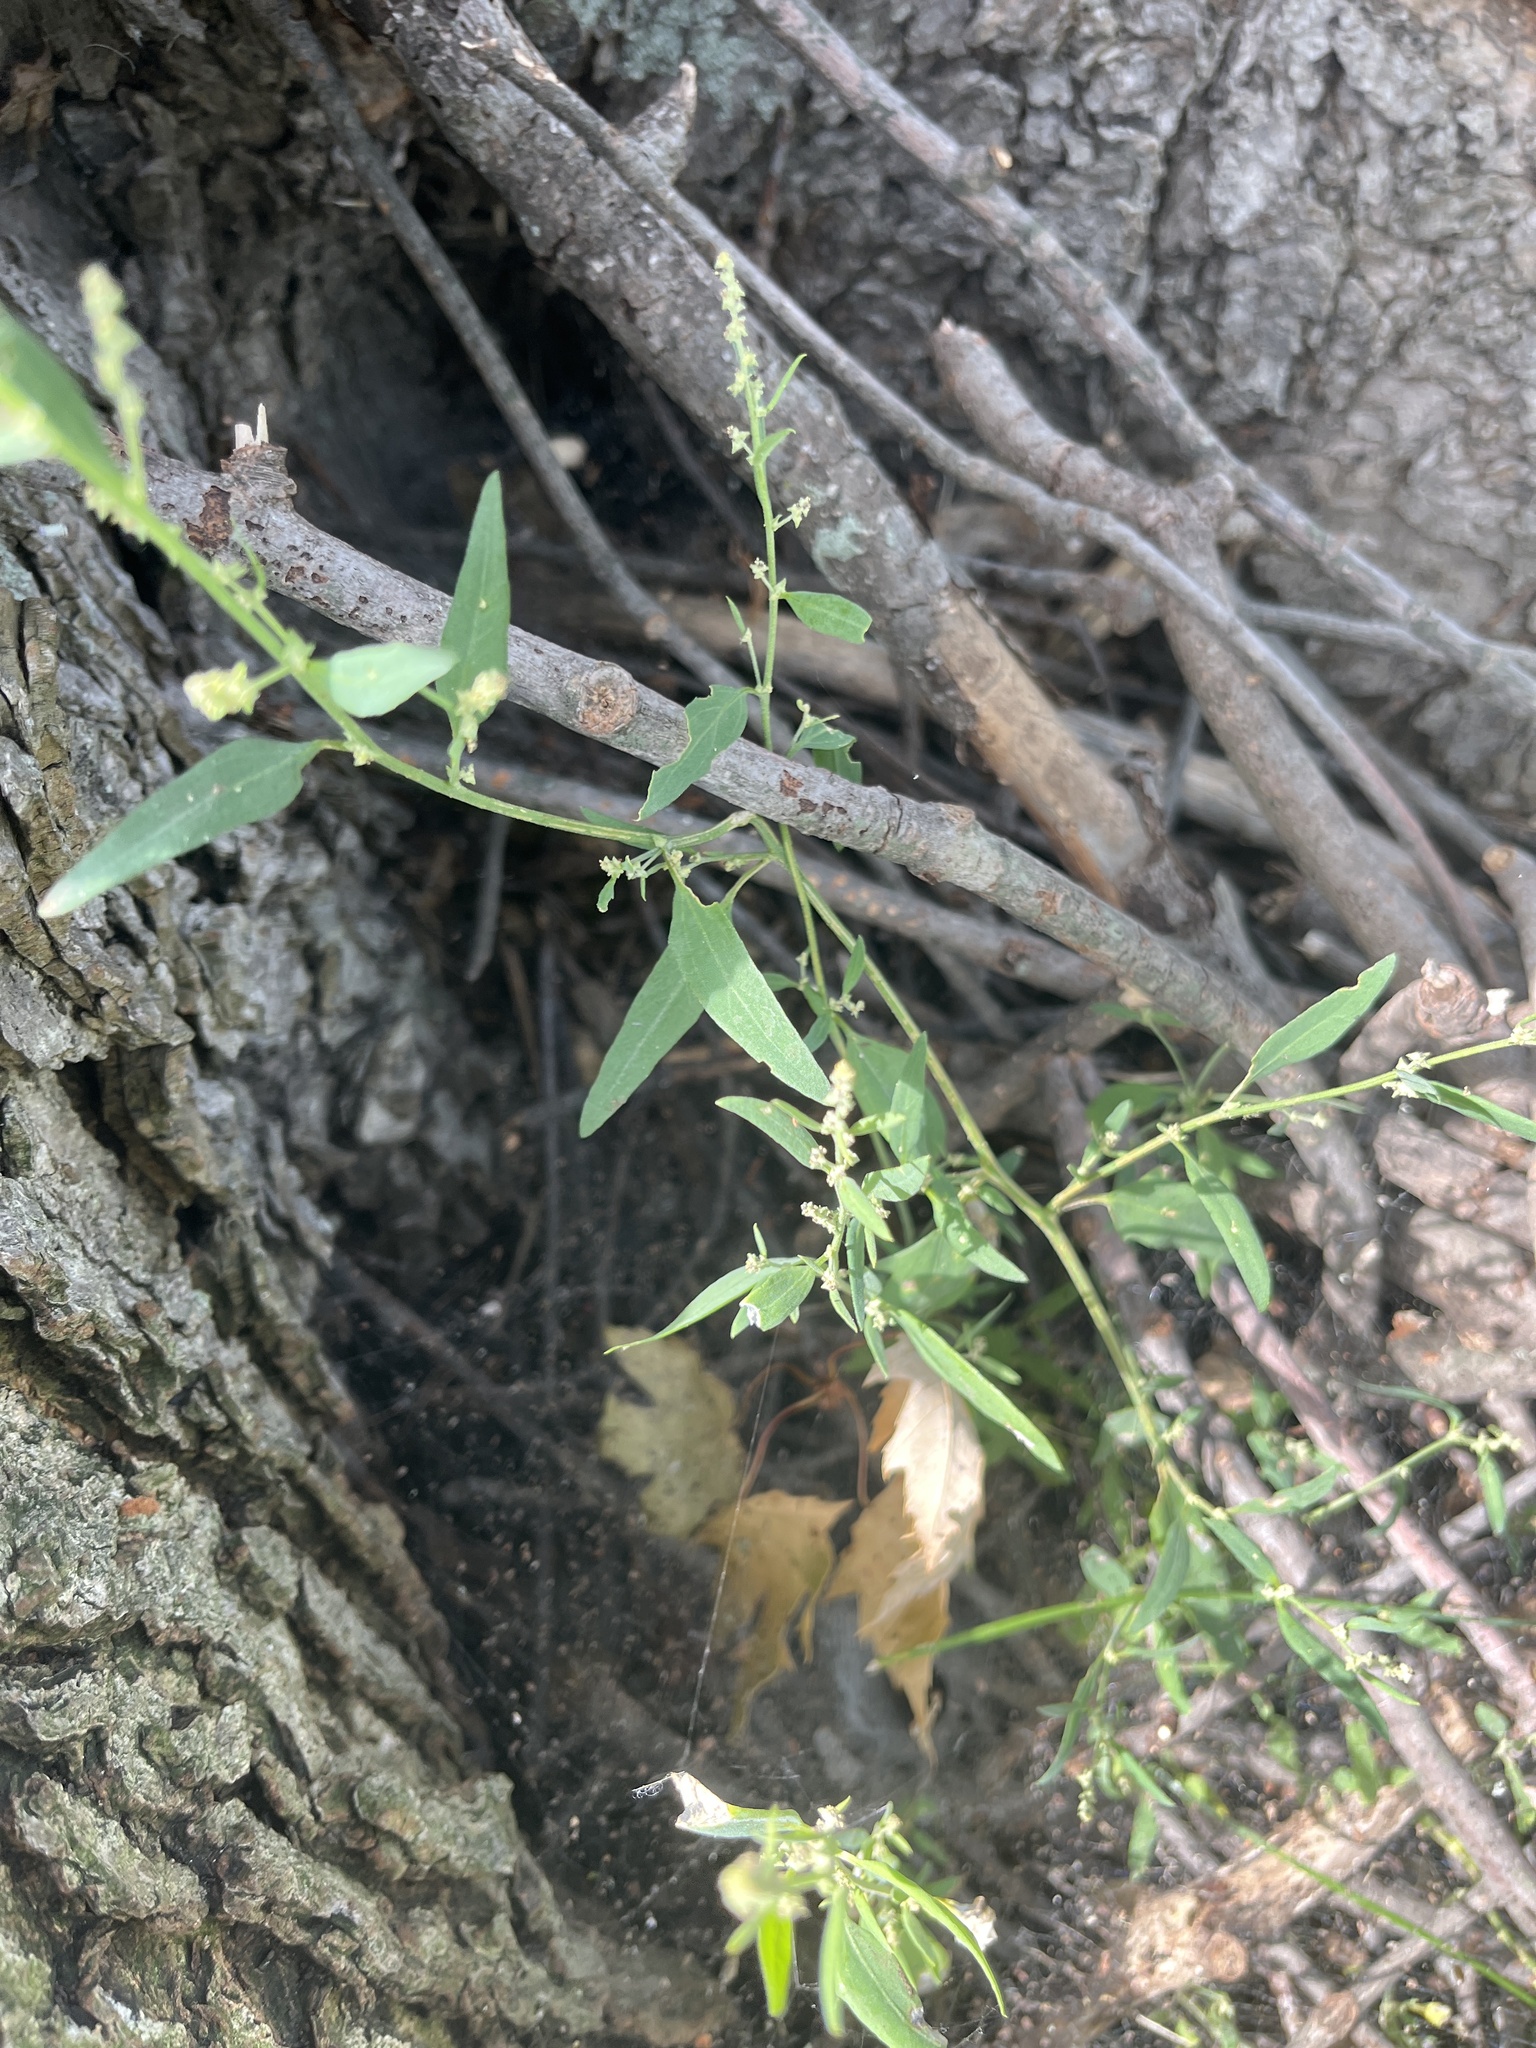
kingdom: Plantae
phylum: Tracheophyta
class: Magnoliopsida
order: Caryophyllales
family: Amaranthaceae
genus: Atriplex
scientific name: Atriplex patula
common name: Common orache
